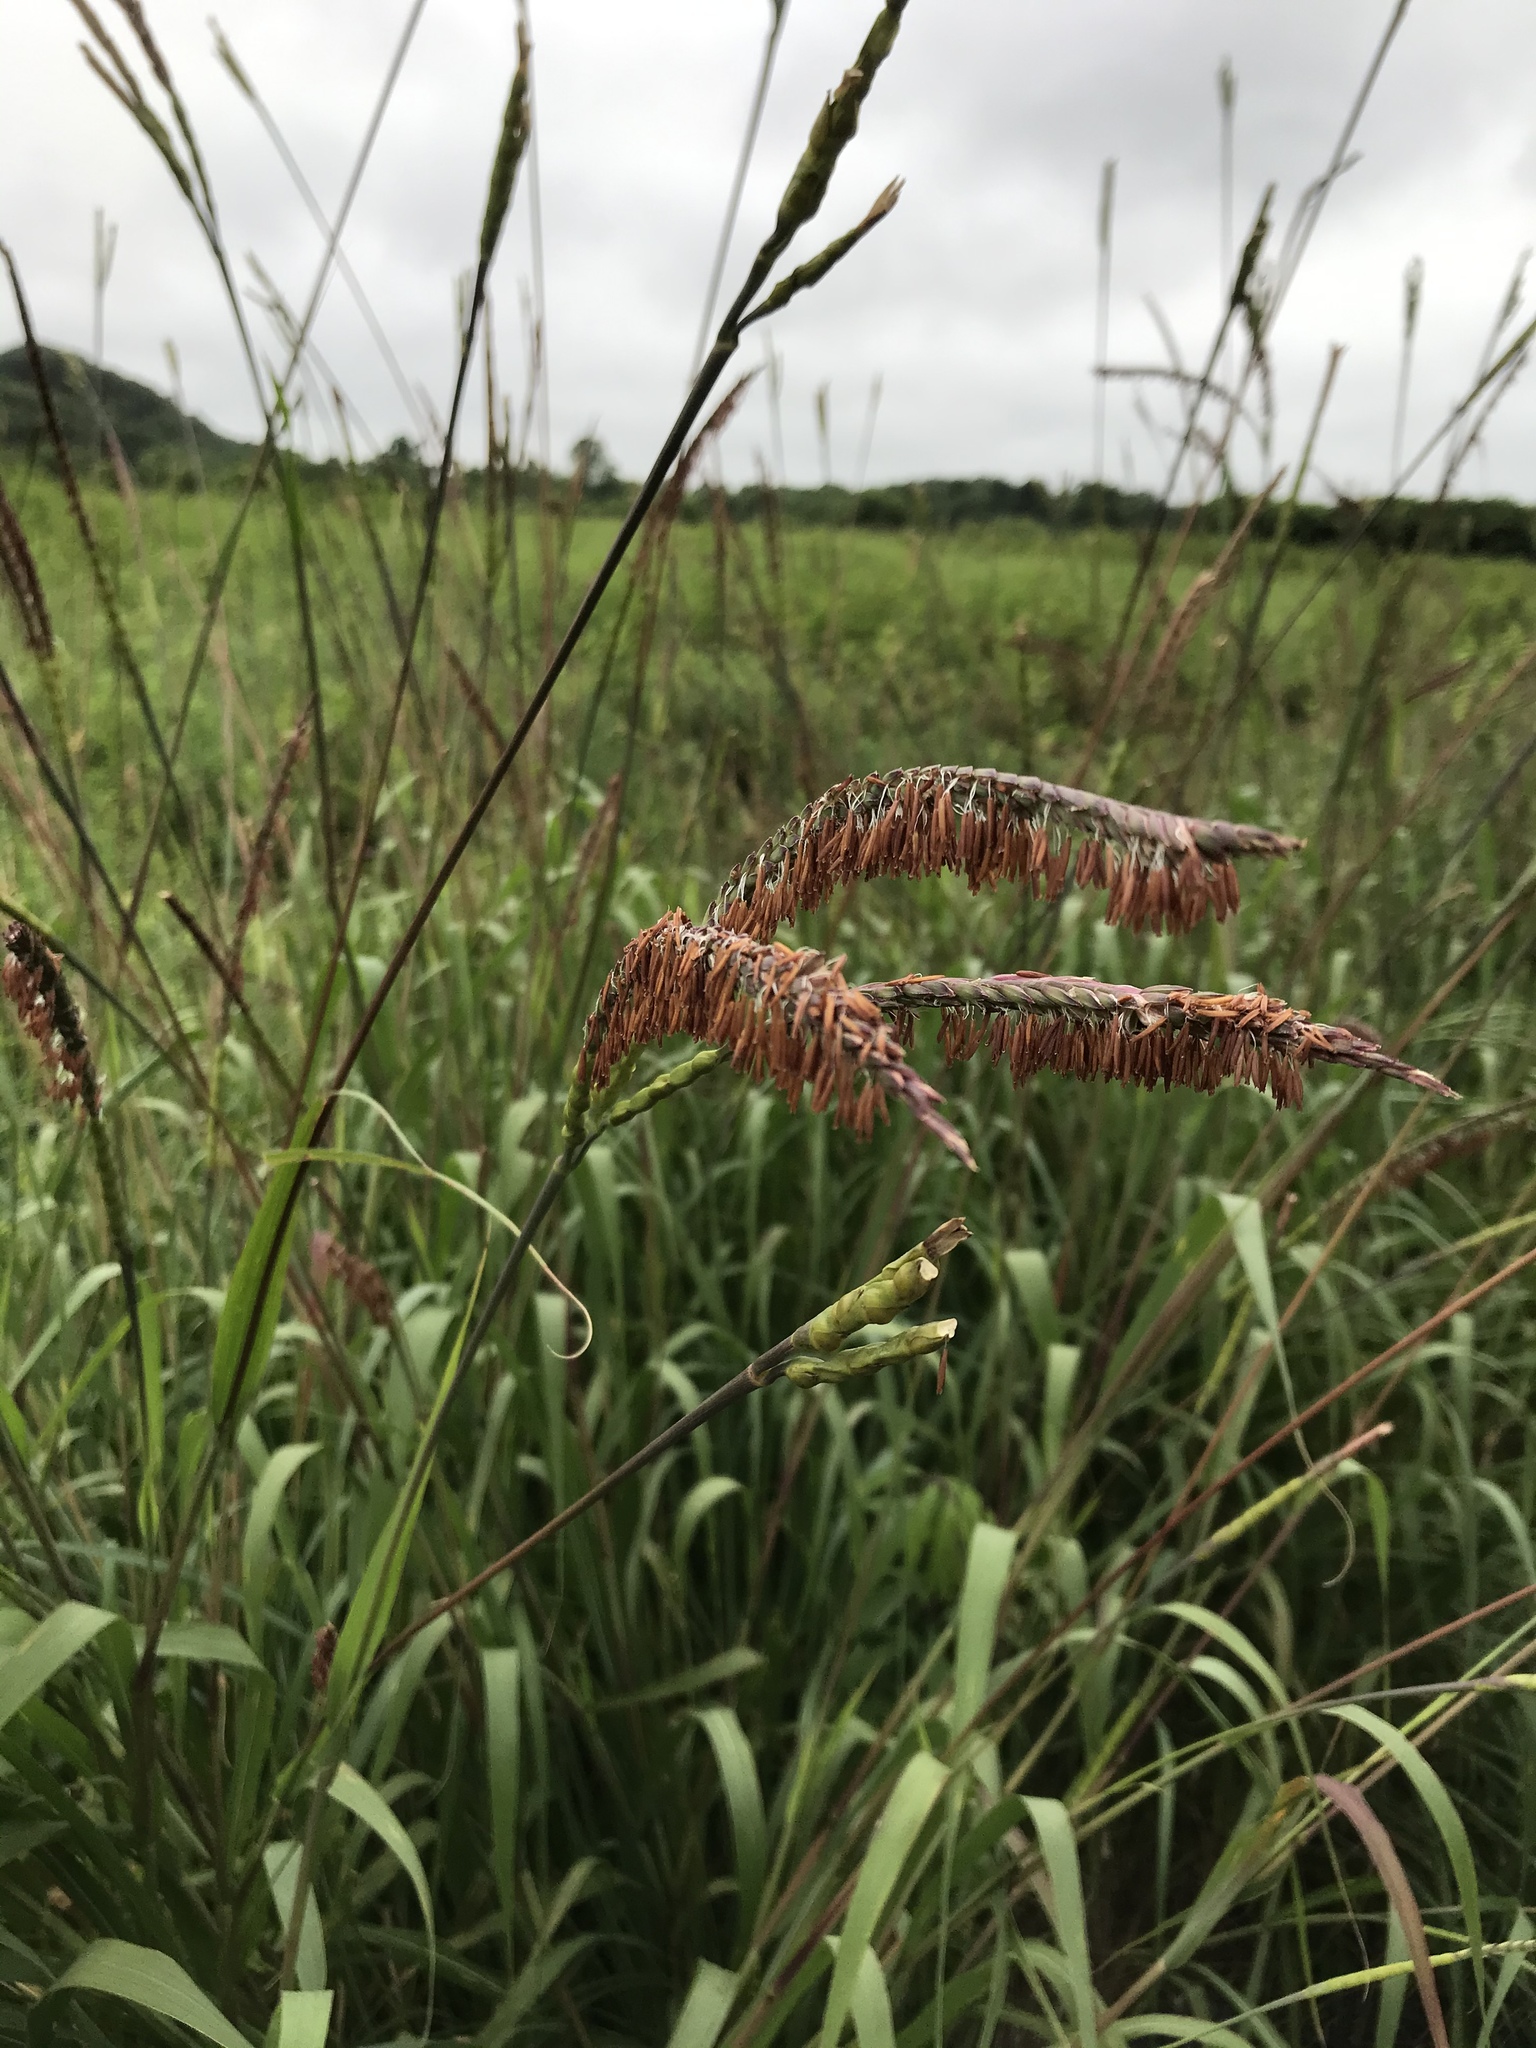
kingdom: Plantae
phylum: Tracheophyta
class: Liliopsida
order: Poales
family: Poaceae
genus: Tripsacum
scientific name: Tripsacum dactyloides
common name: Buffalo-grass
